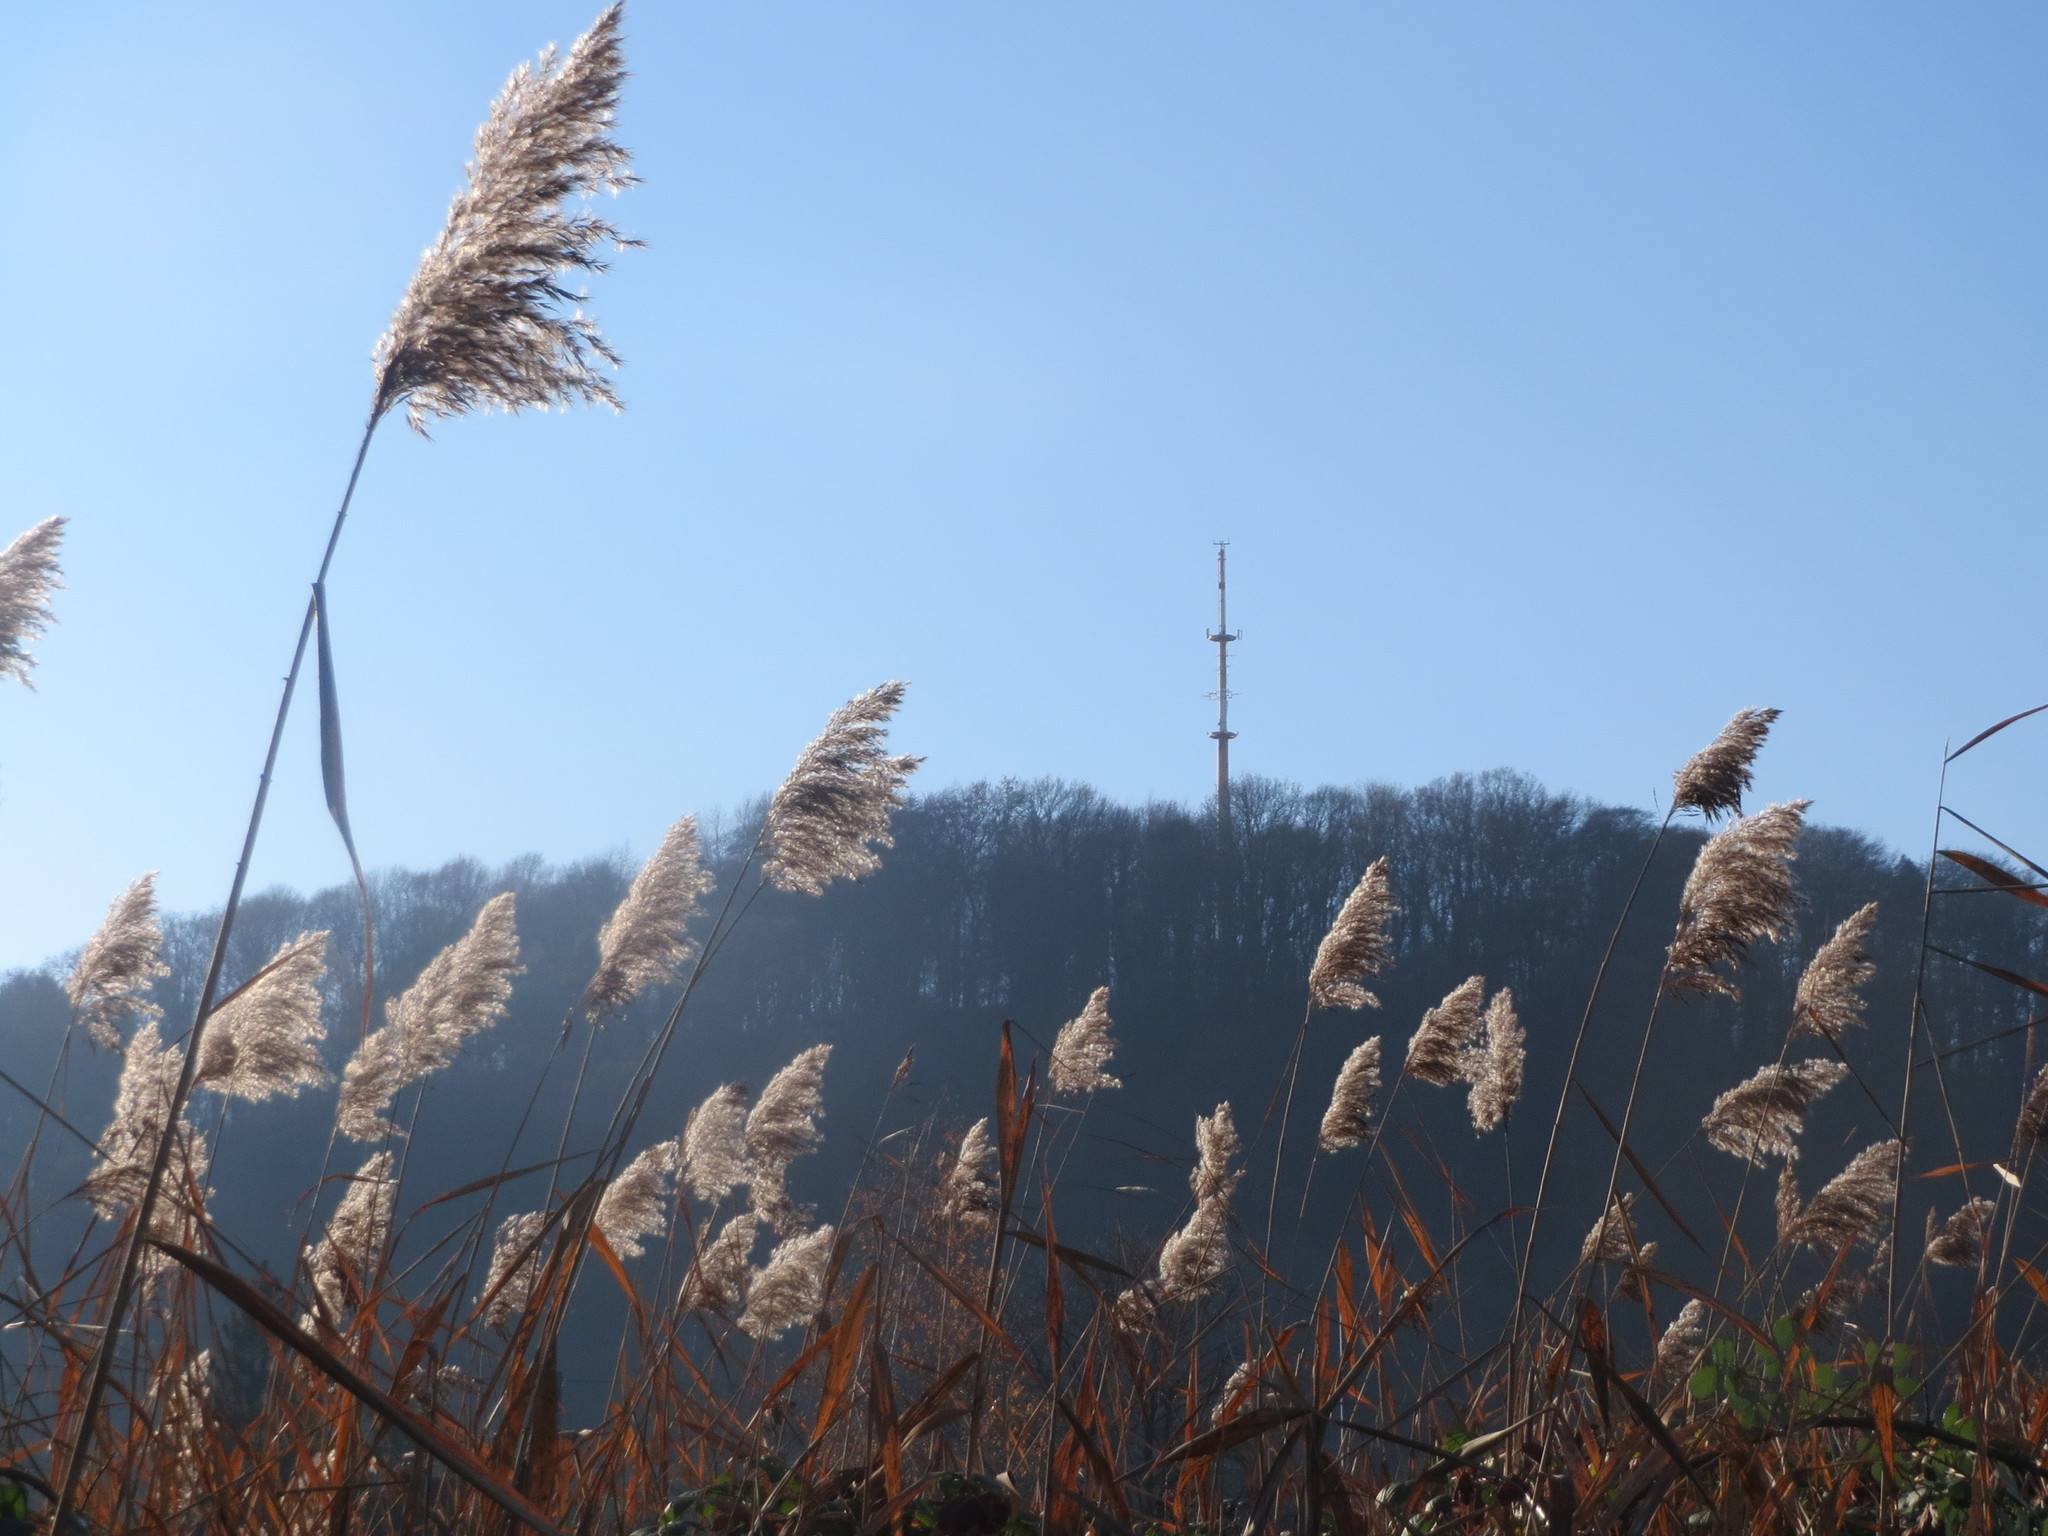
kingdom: Plantae
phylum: Tracheophyta
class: Liliopsida
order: Poales
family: Poaceae
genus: Phragmites
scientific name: Phragmites australis
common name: Common reed
